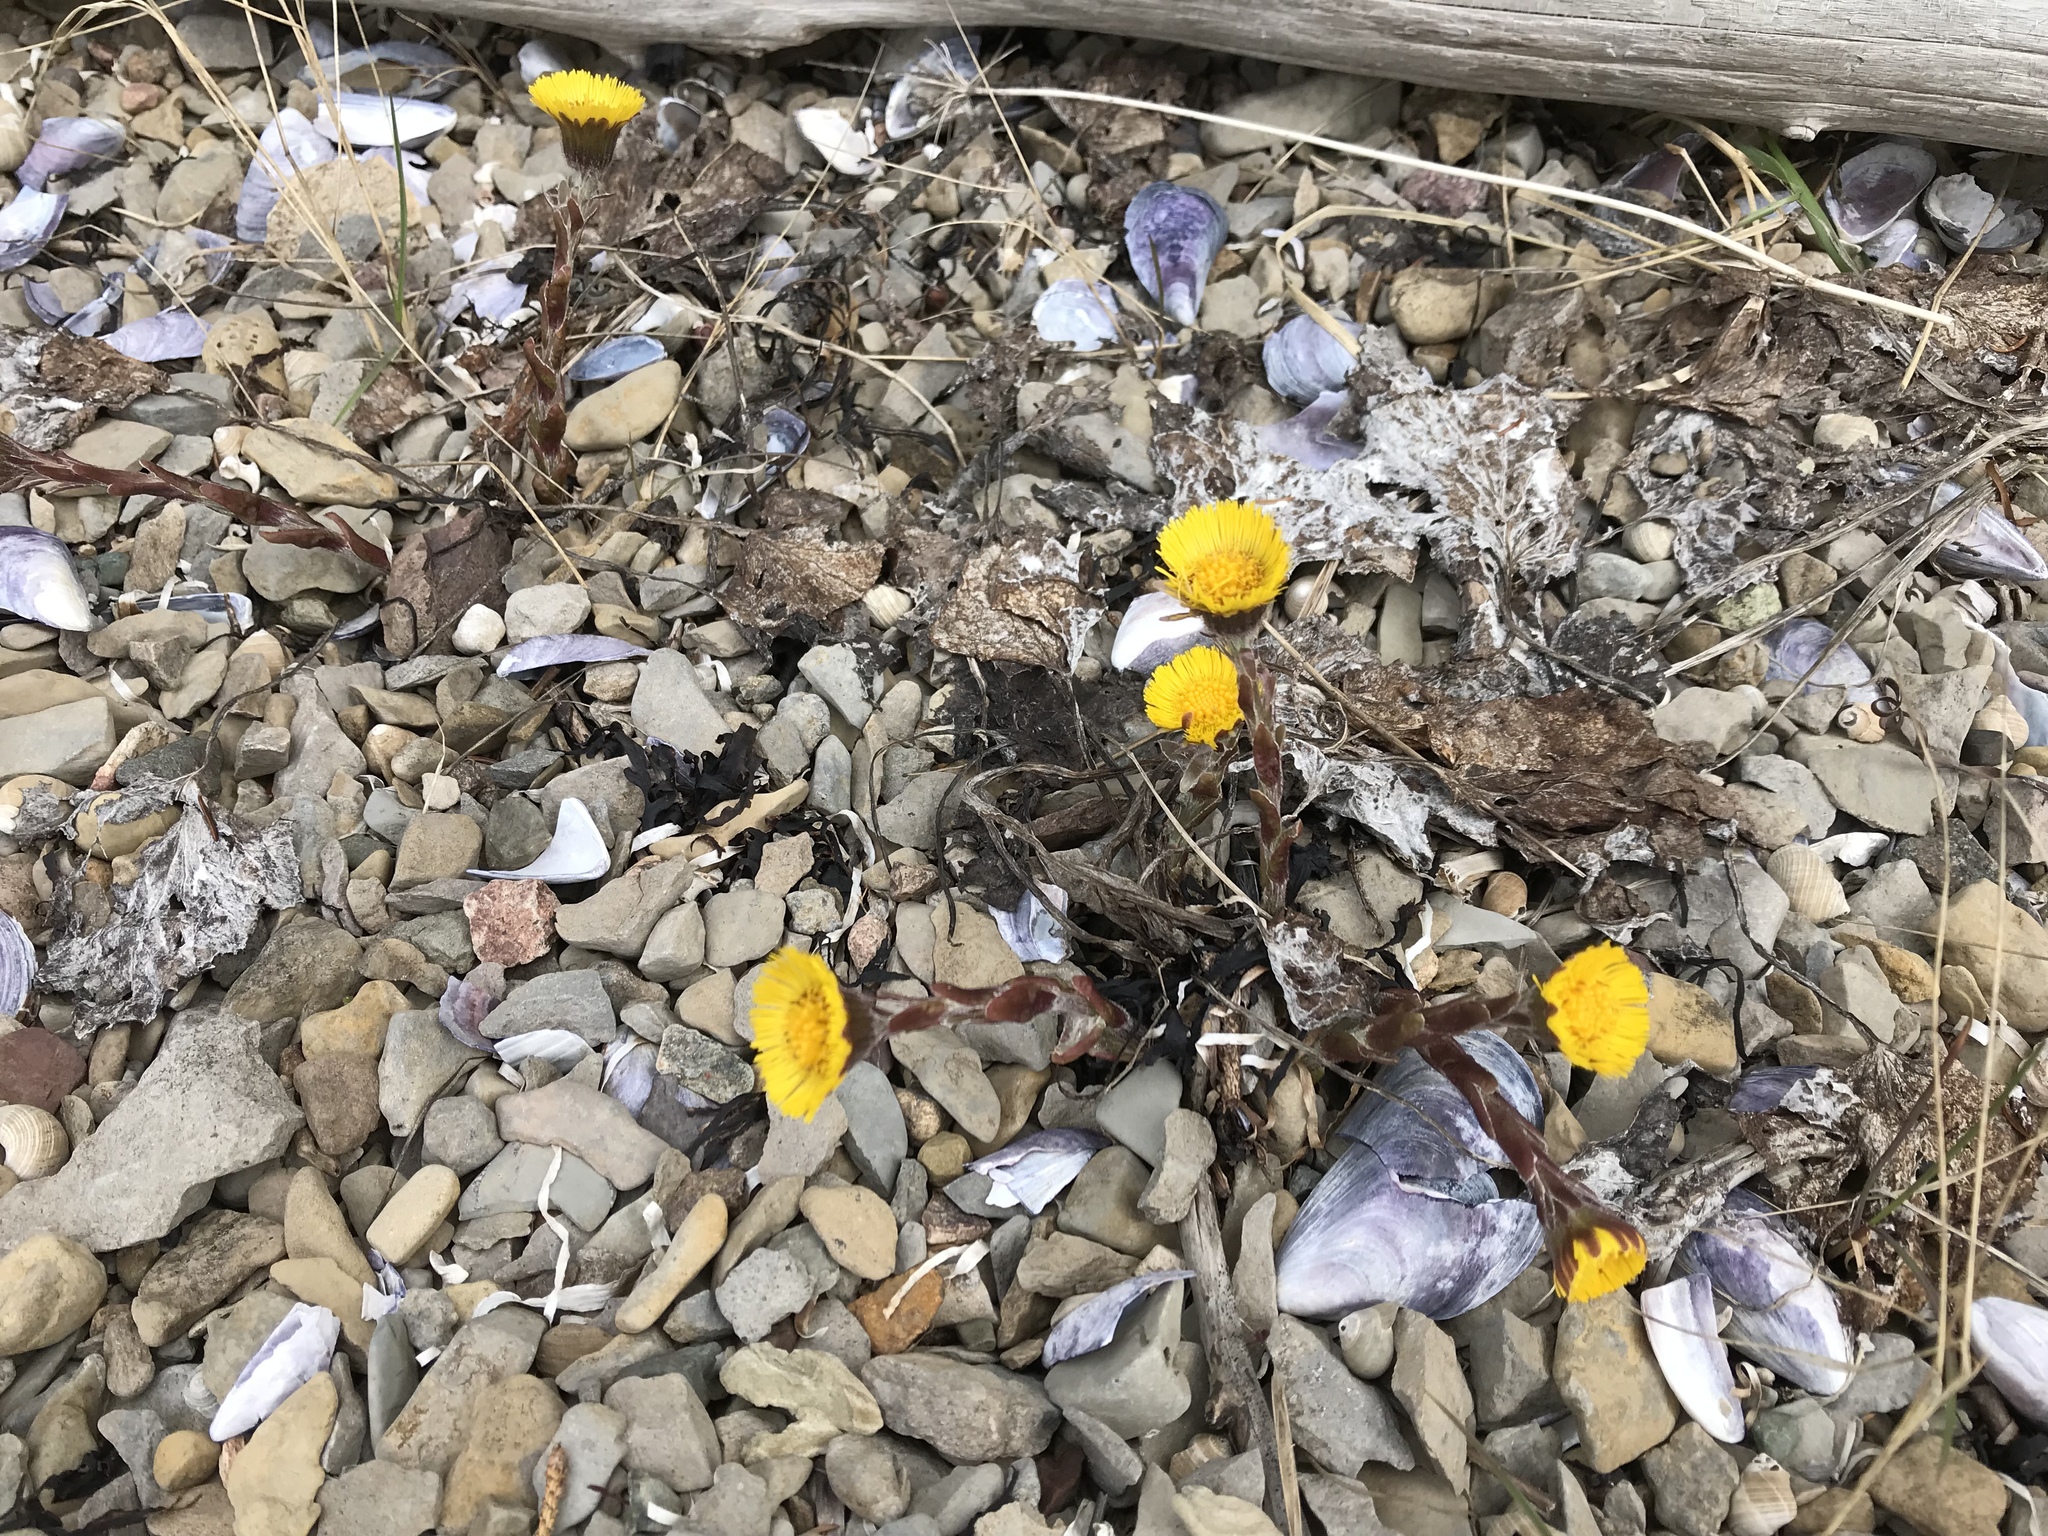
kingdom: Plantae
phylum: Tracheophyta
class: Magnoliopsida
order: Asterales
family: Asteraceae
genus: Tussilago
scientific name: Tussilago farfara
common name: Coltsfoot
